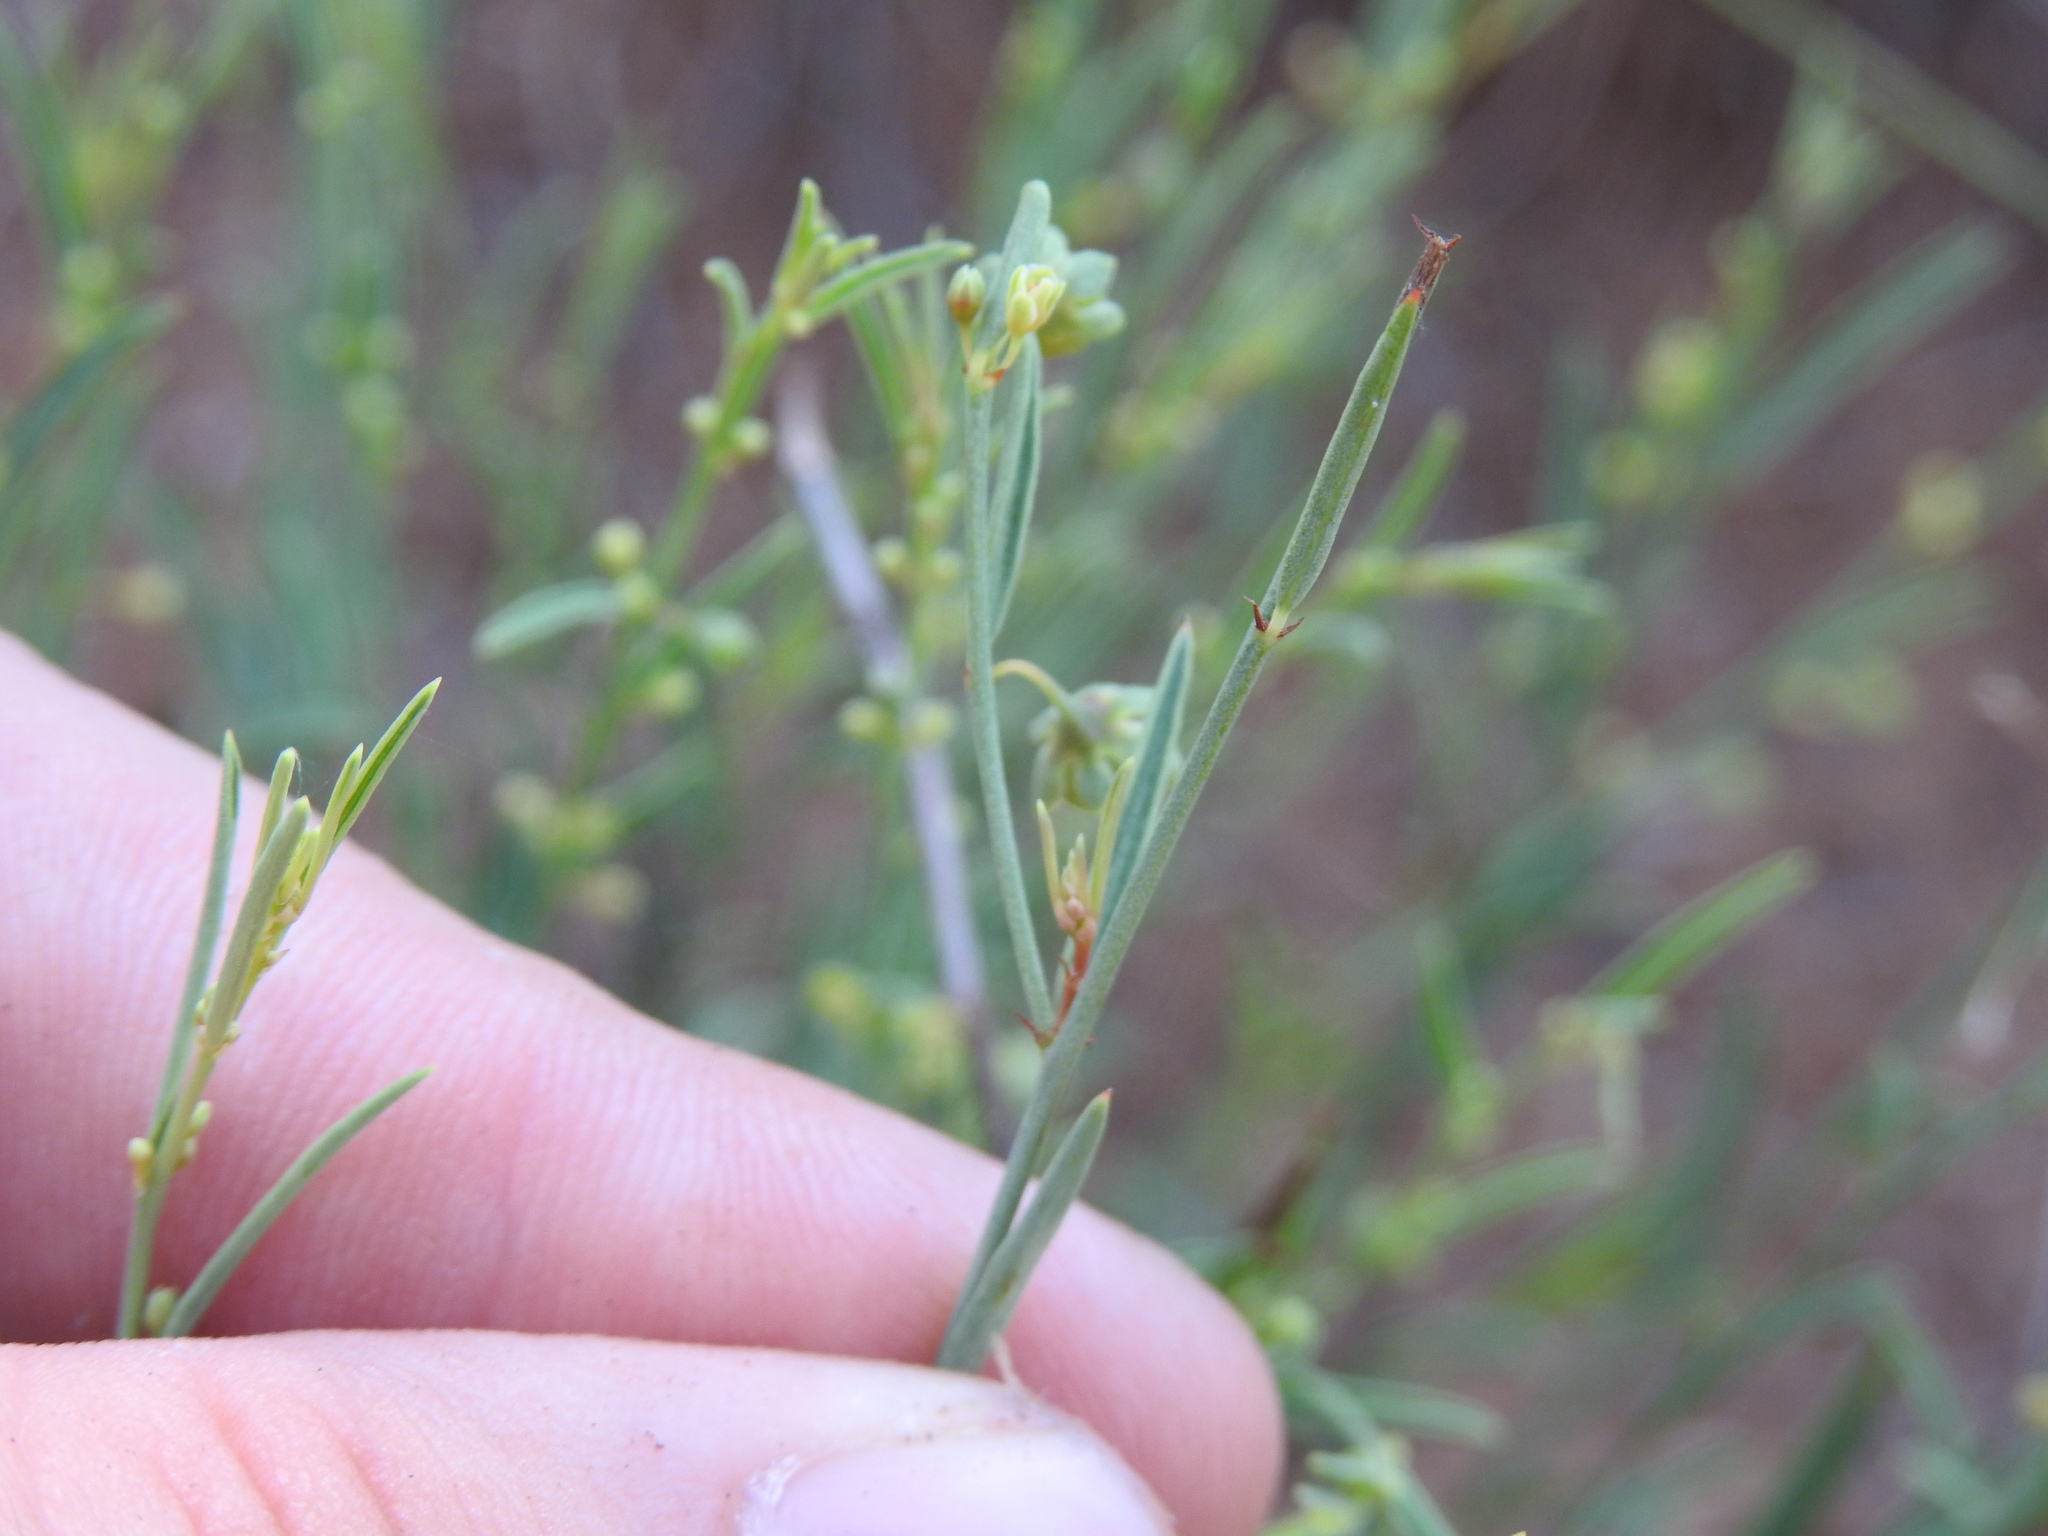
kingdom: Plantae
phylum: Tracheophyta
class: Magnoliopsida
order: Malpighiales
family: Phyllanthaceae
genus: Phyllanthus
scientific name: Phyllanthus incurvus
